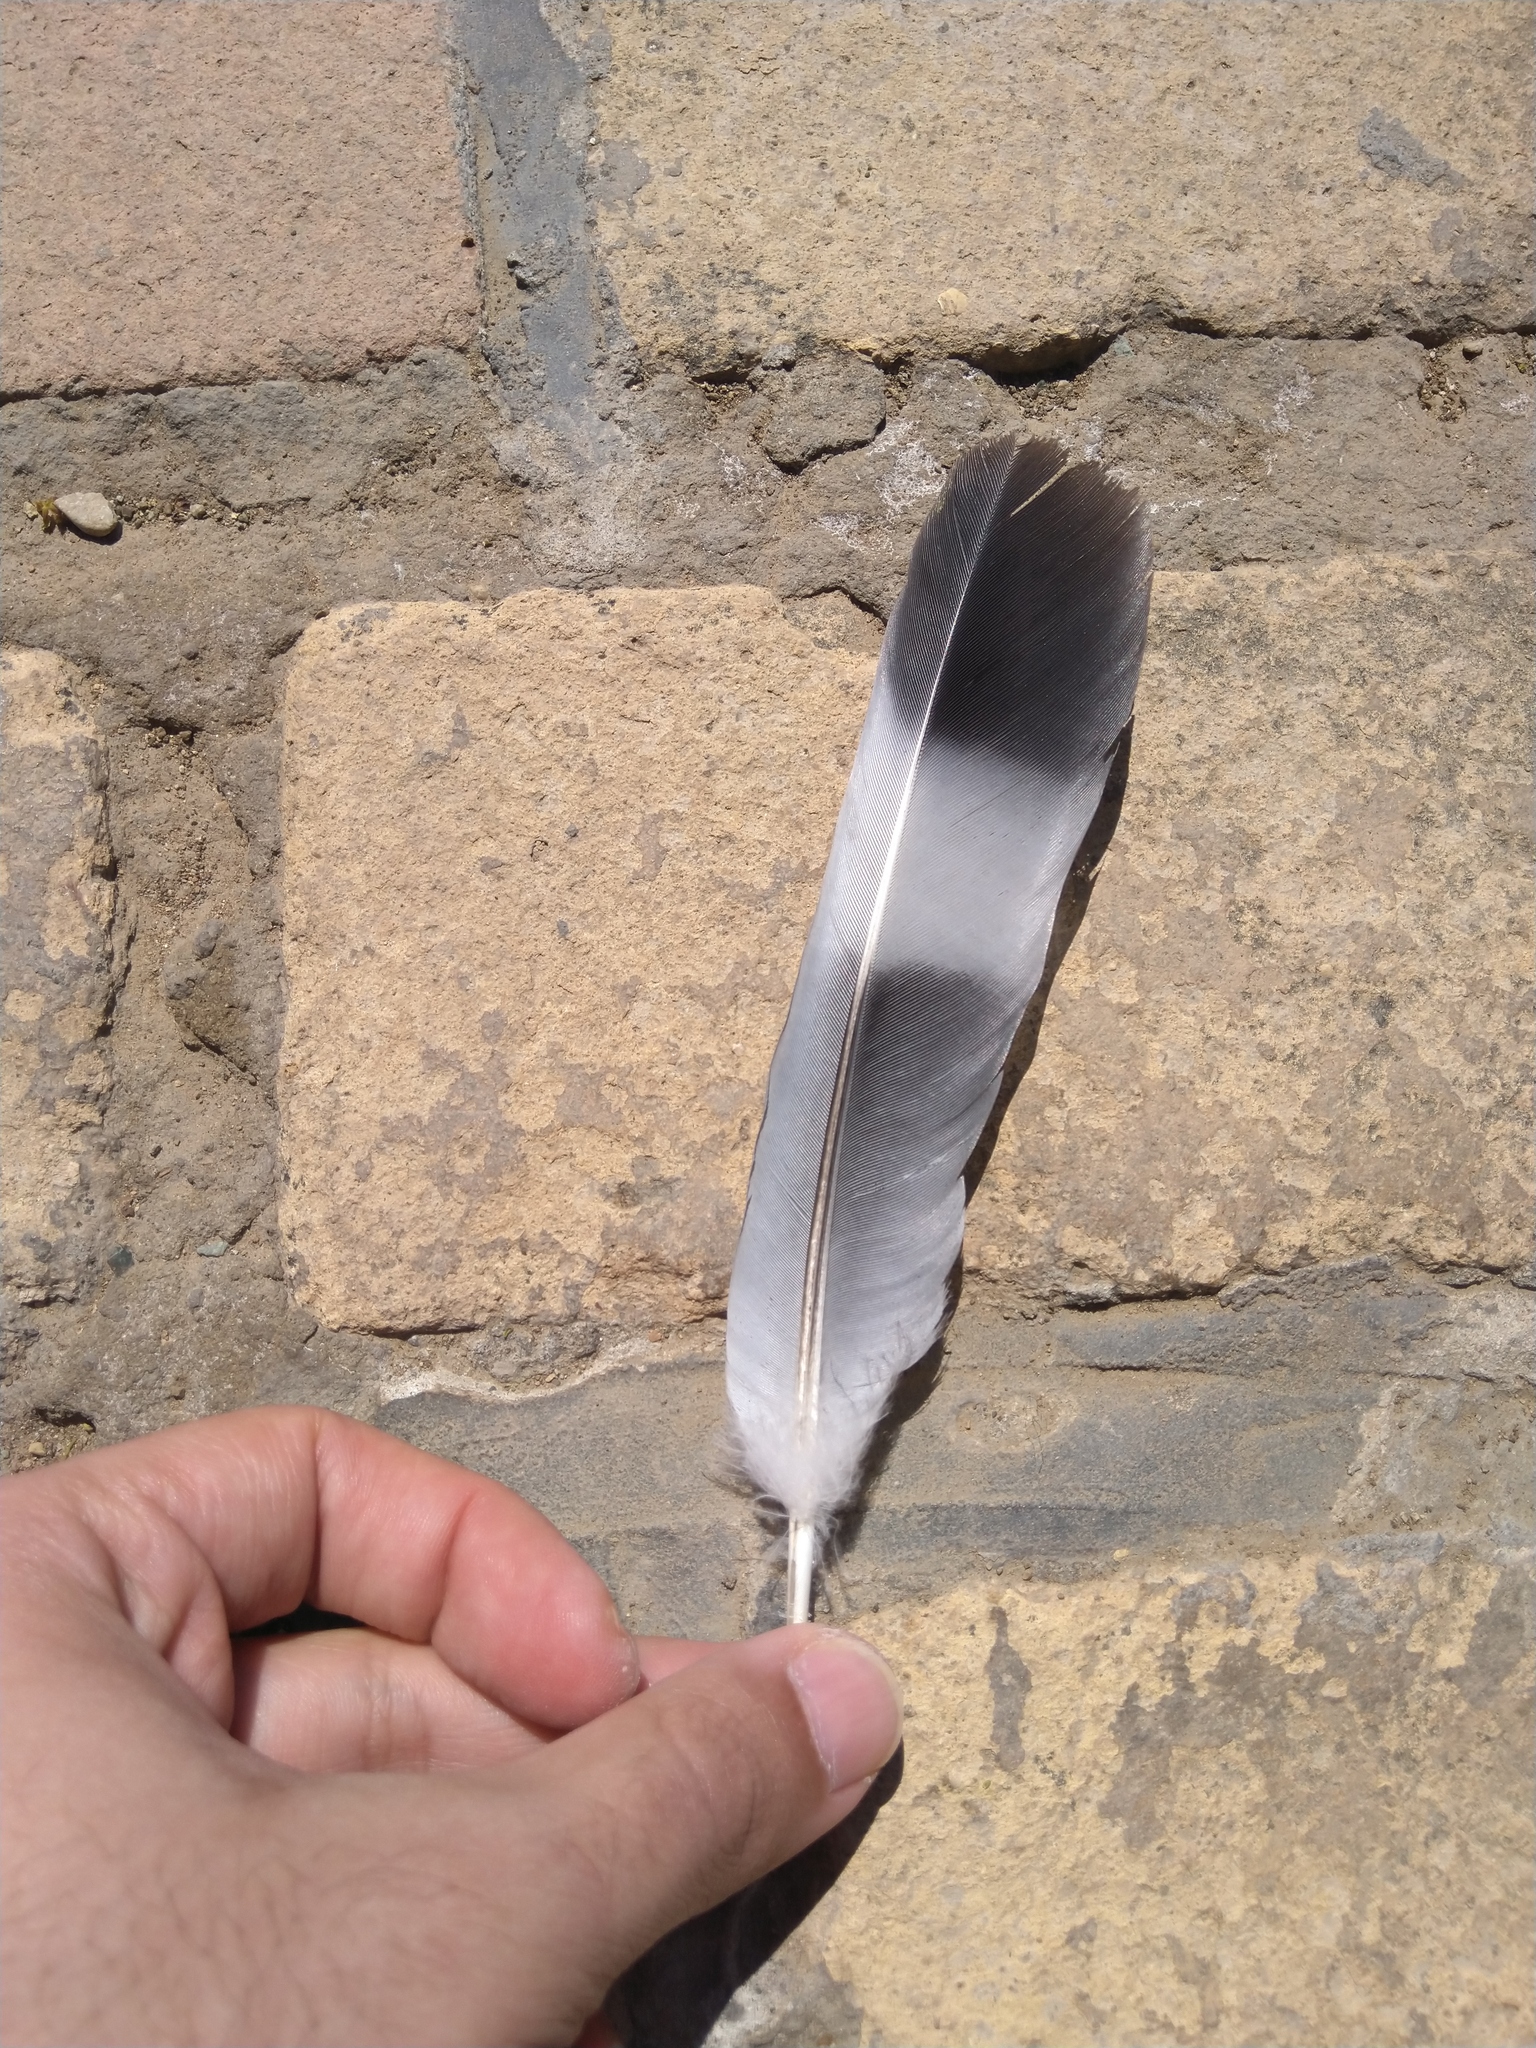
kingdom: Animalia
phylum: Chordata
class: Aves
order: Columbiformes
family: Columbidae
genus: Columba
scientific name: Columba palumbus
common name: Common wood pigeon
